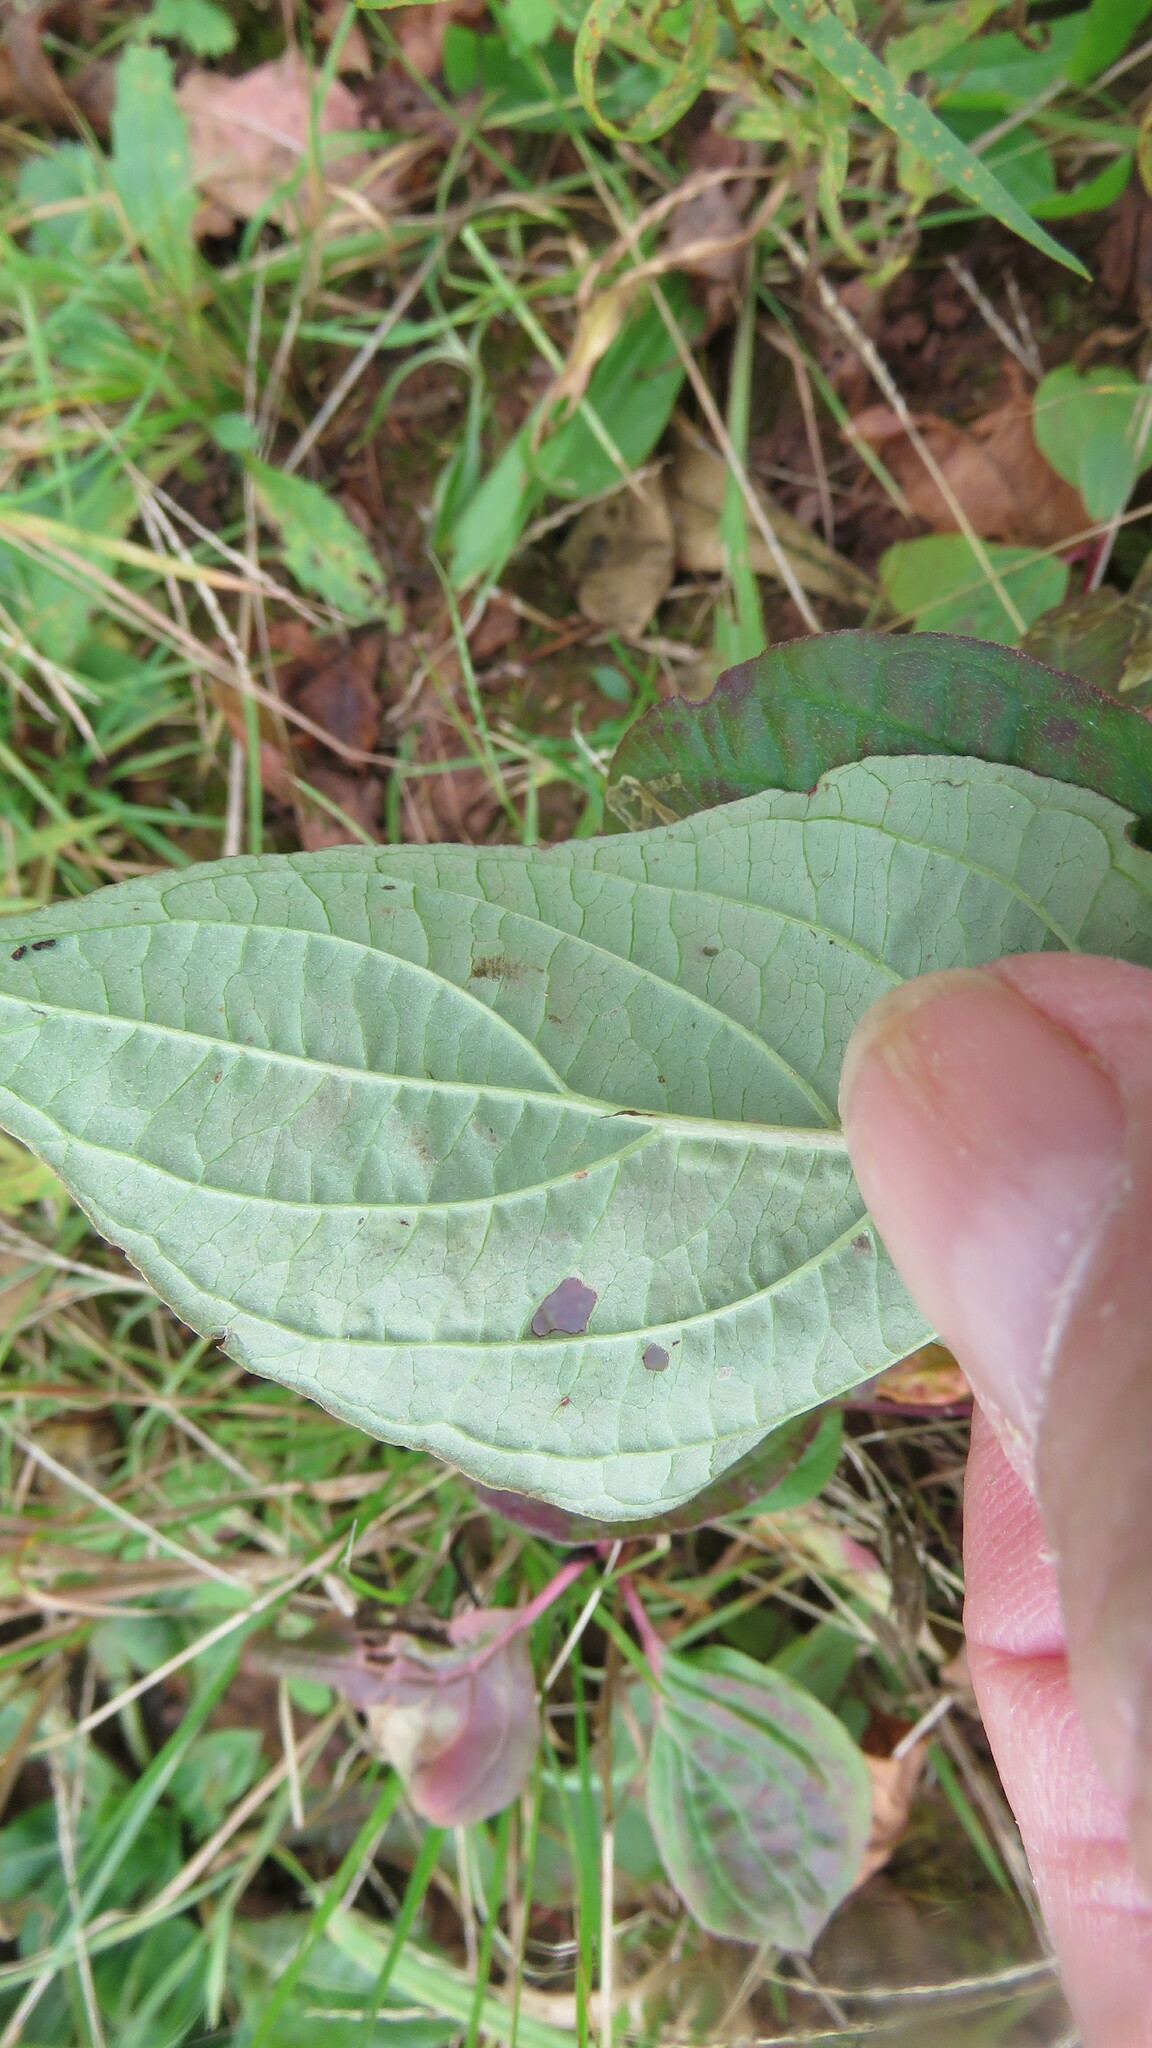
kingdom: Animalia
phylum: Arthropoda
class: Insecta
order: Diptera
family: Agromyzidae
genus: Phytomyza
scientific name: Phytomyza agromyzina
